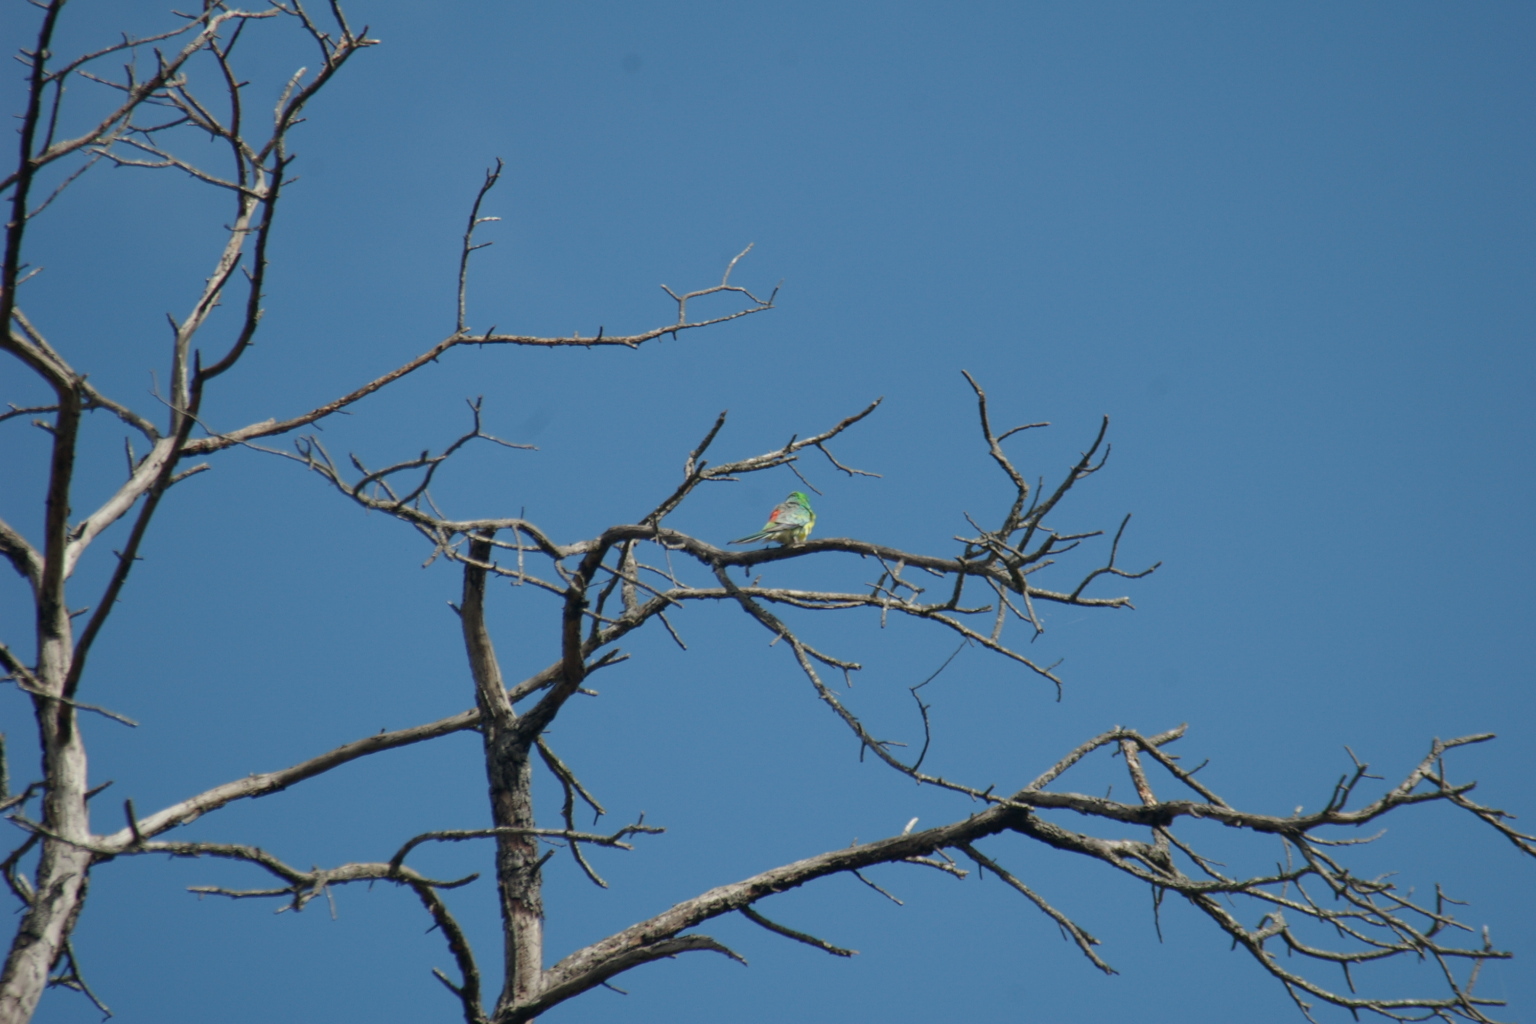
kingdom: Animalia
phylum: Chordata
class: Aves
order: Psittaciformes
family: Psittacidae
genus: Psephotus
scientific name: Psephotus haematonotus
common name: Red-rumped parrot
